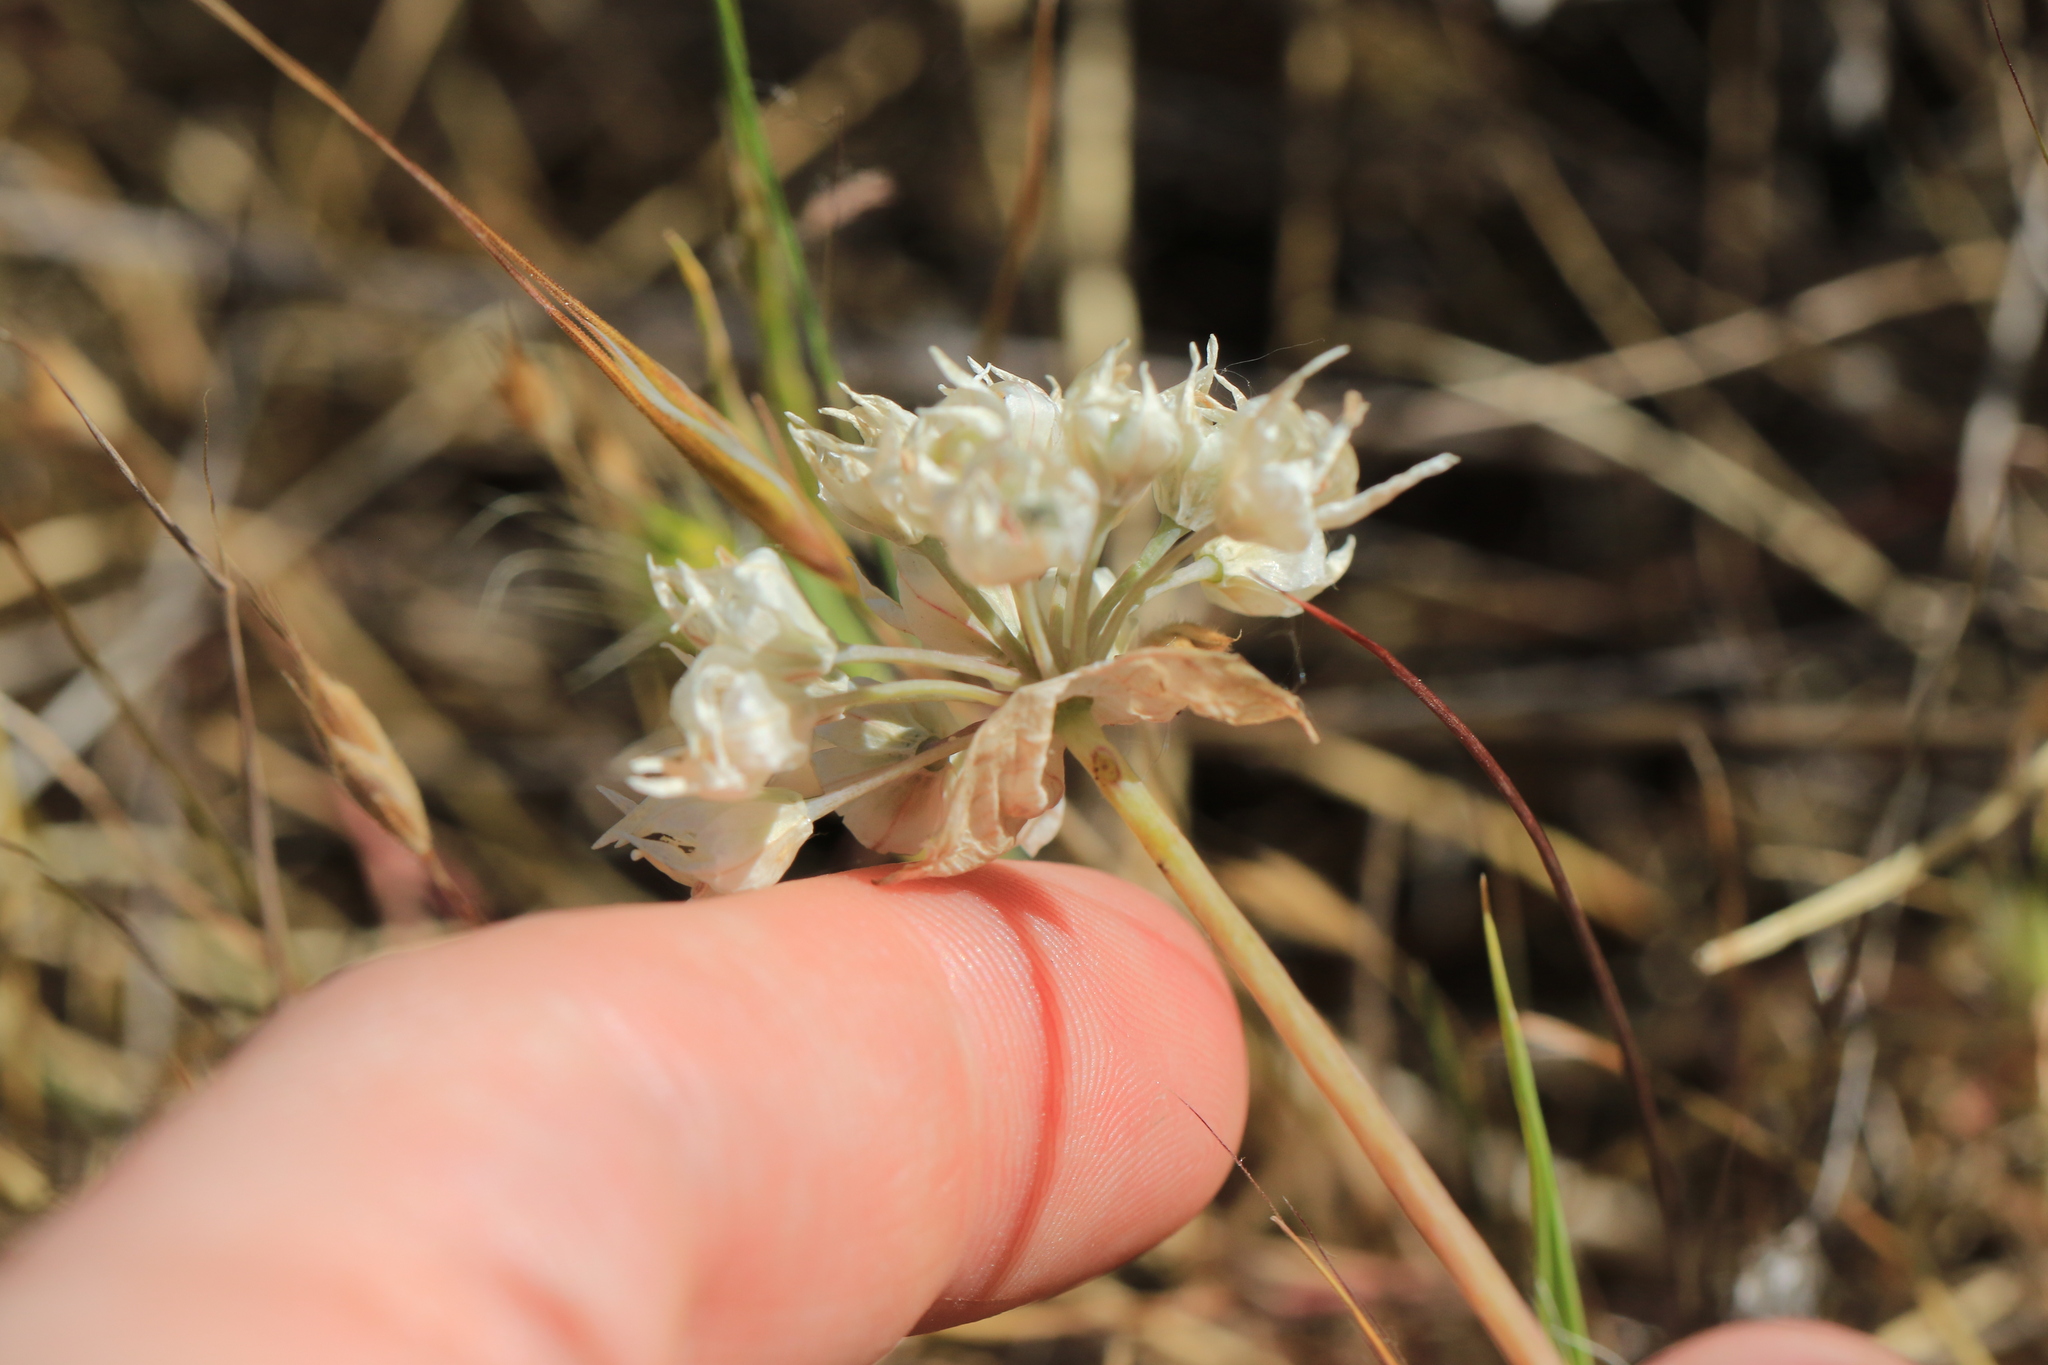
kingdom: Plantae
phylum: Tracheophyta
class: Liliopsida
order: Asparagales
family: Amaryllidaceae
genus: Allium
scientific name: Allium amplectens
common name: Narrow-leaved onion
